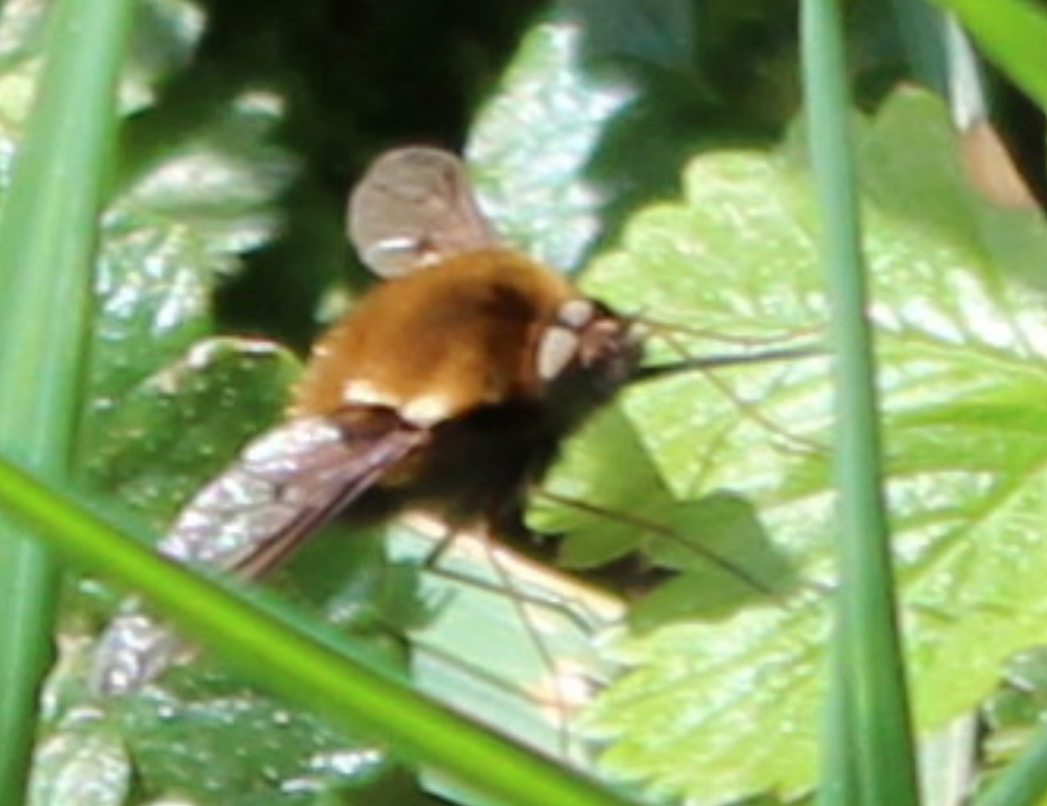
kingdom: Animalia
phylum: Arthropoda
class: Insecta
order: Diptera
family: Bombyliidae
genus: Bombylius
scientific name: Bombylius discolor
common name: Dotted bee-fly
